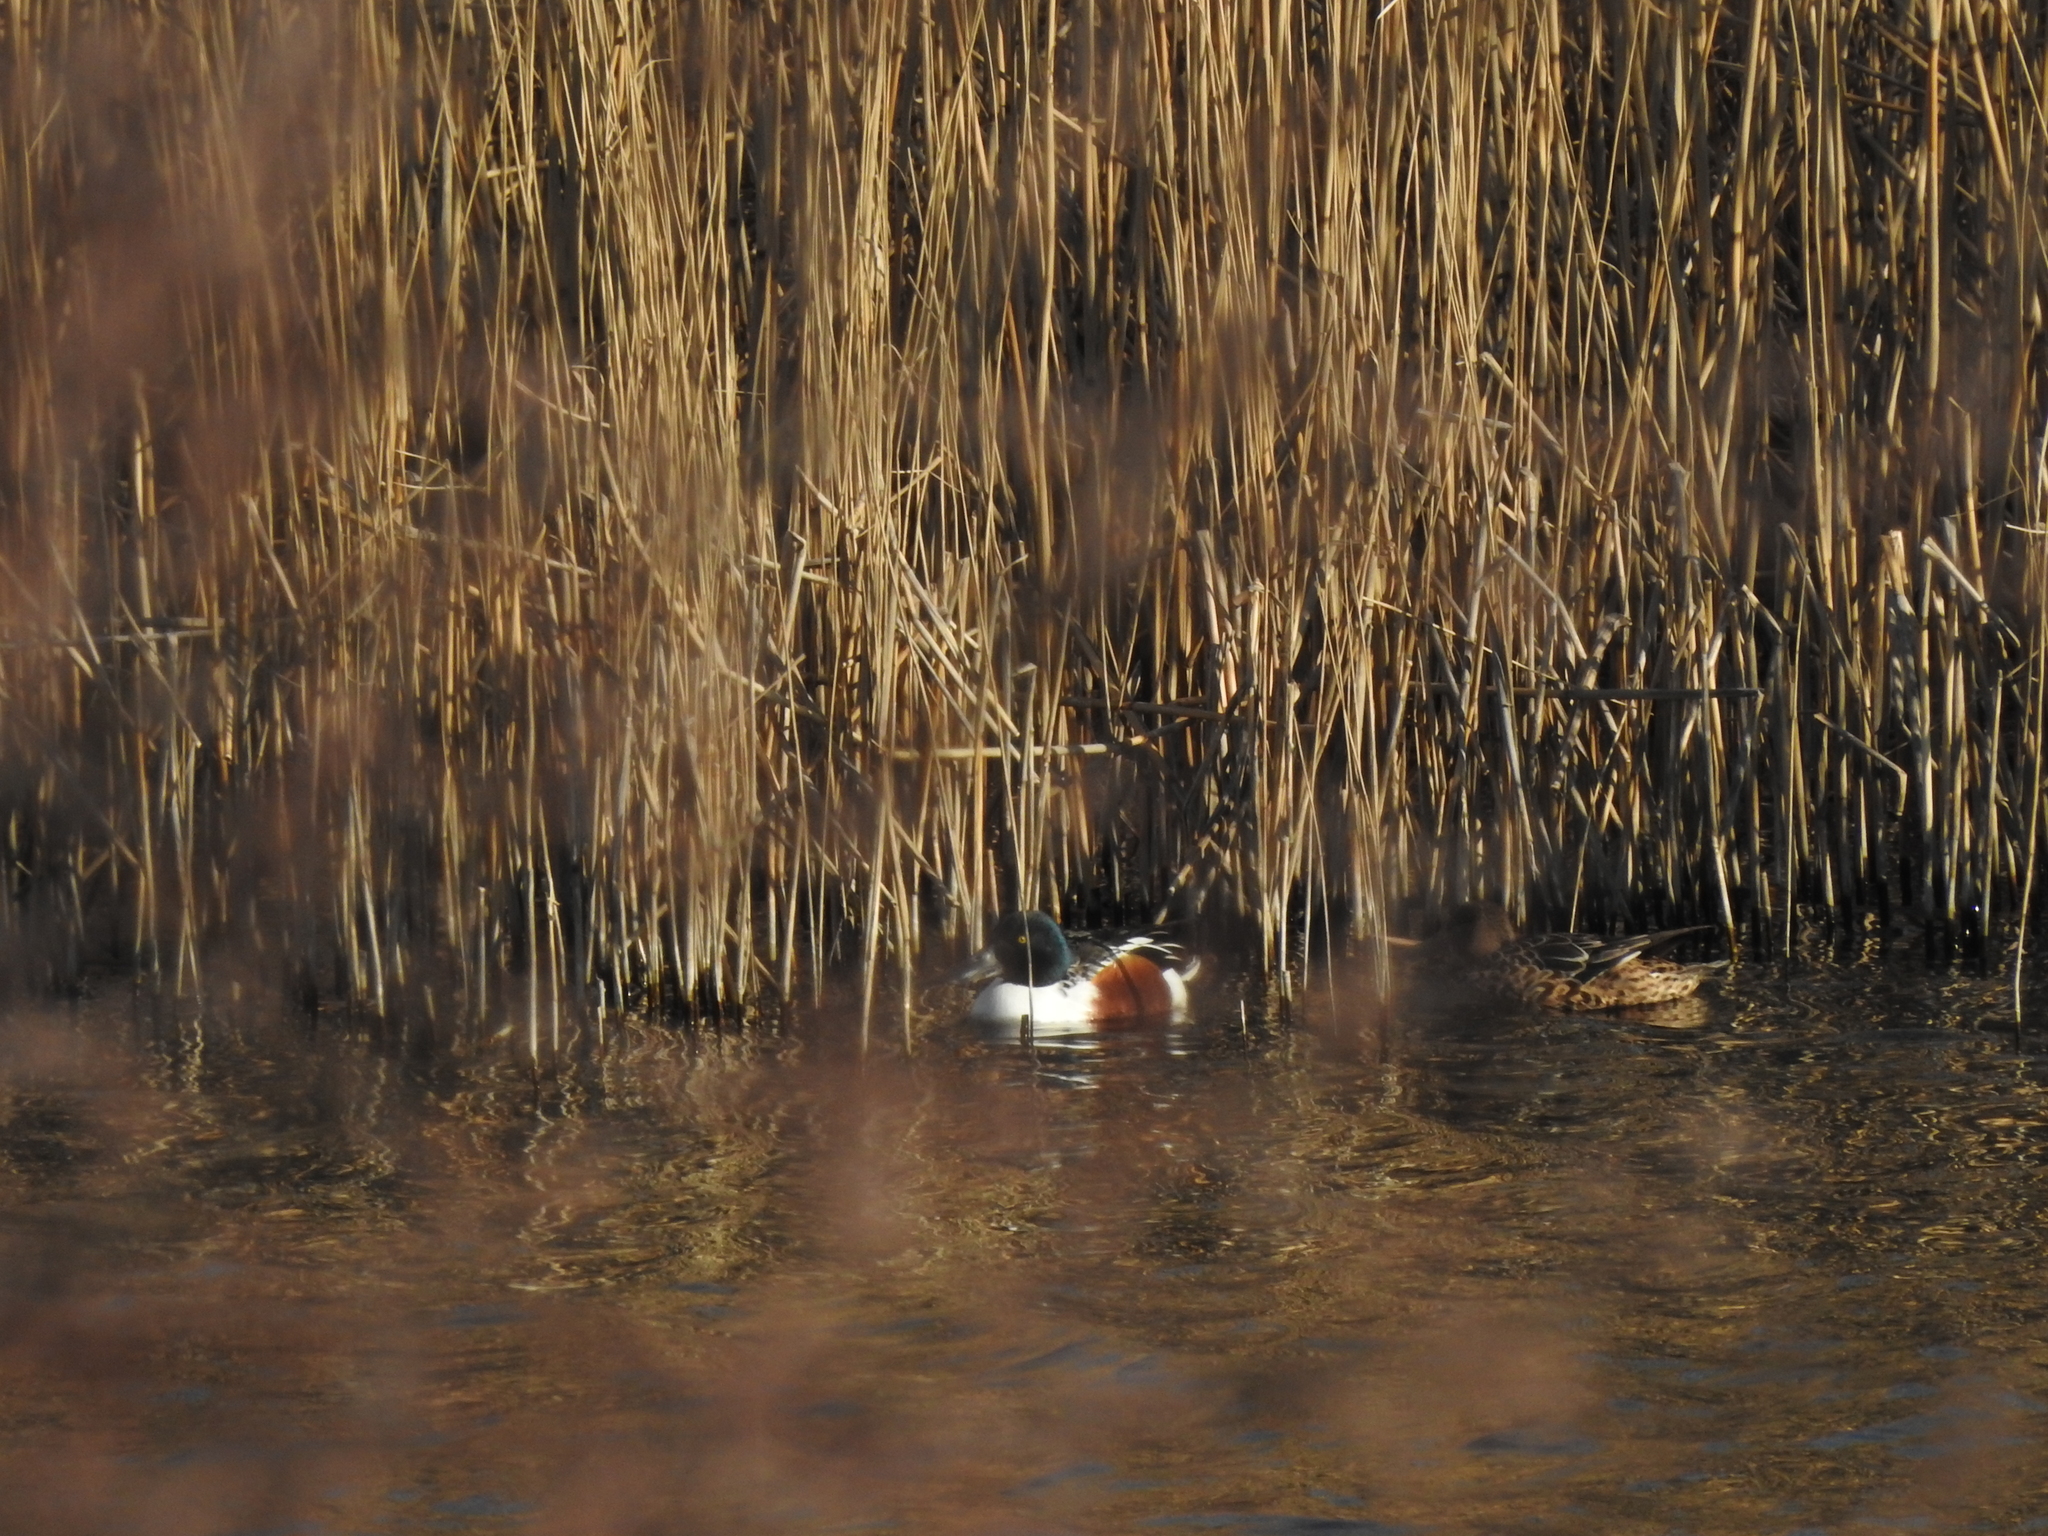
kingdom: Animalia
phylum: Chordata
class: Aves
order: Anseriformes
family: Anatidae
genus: Spatula
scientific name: Spatula clypeata
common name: Northern shoveler
